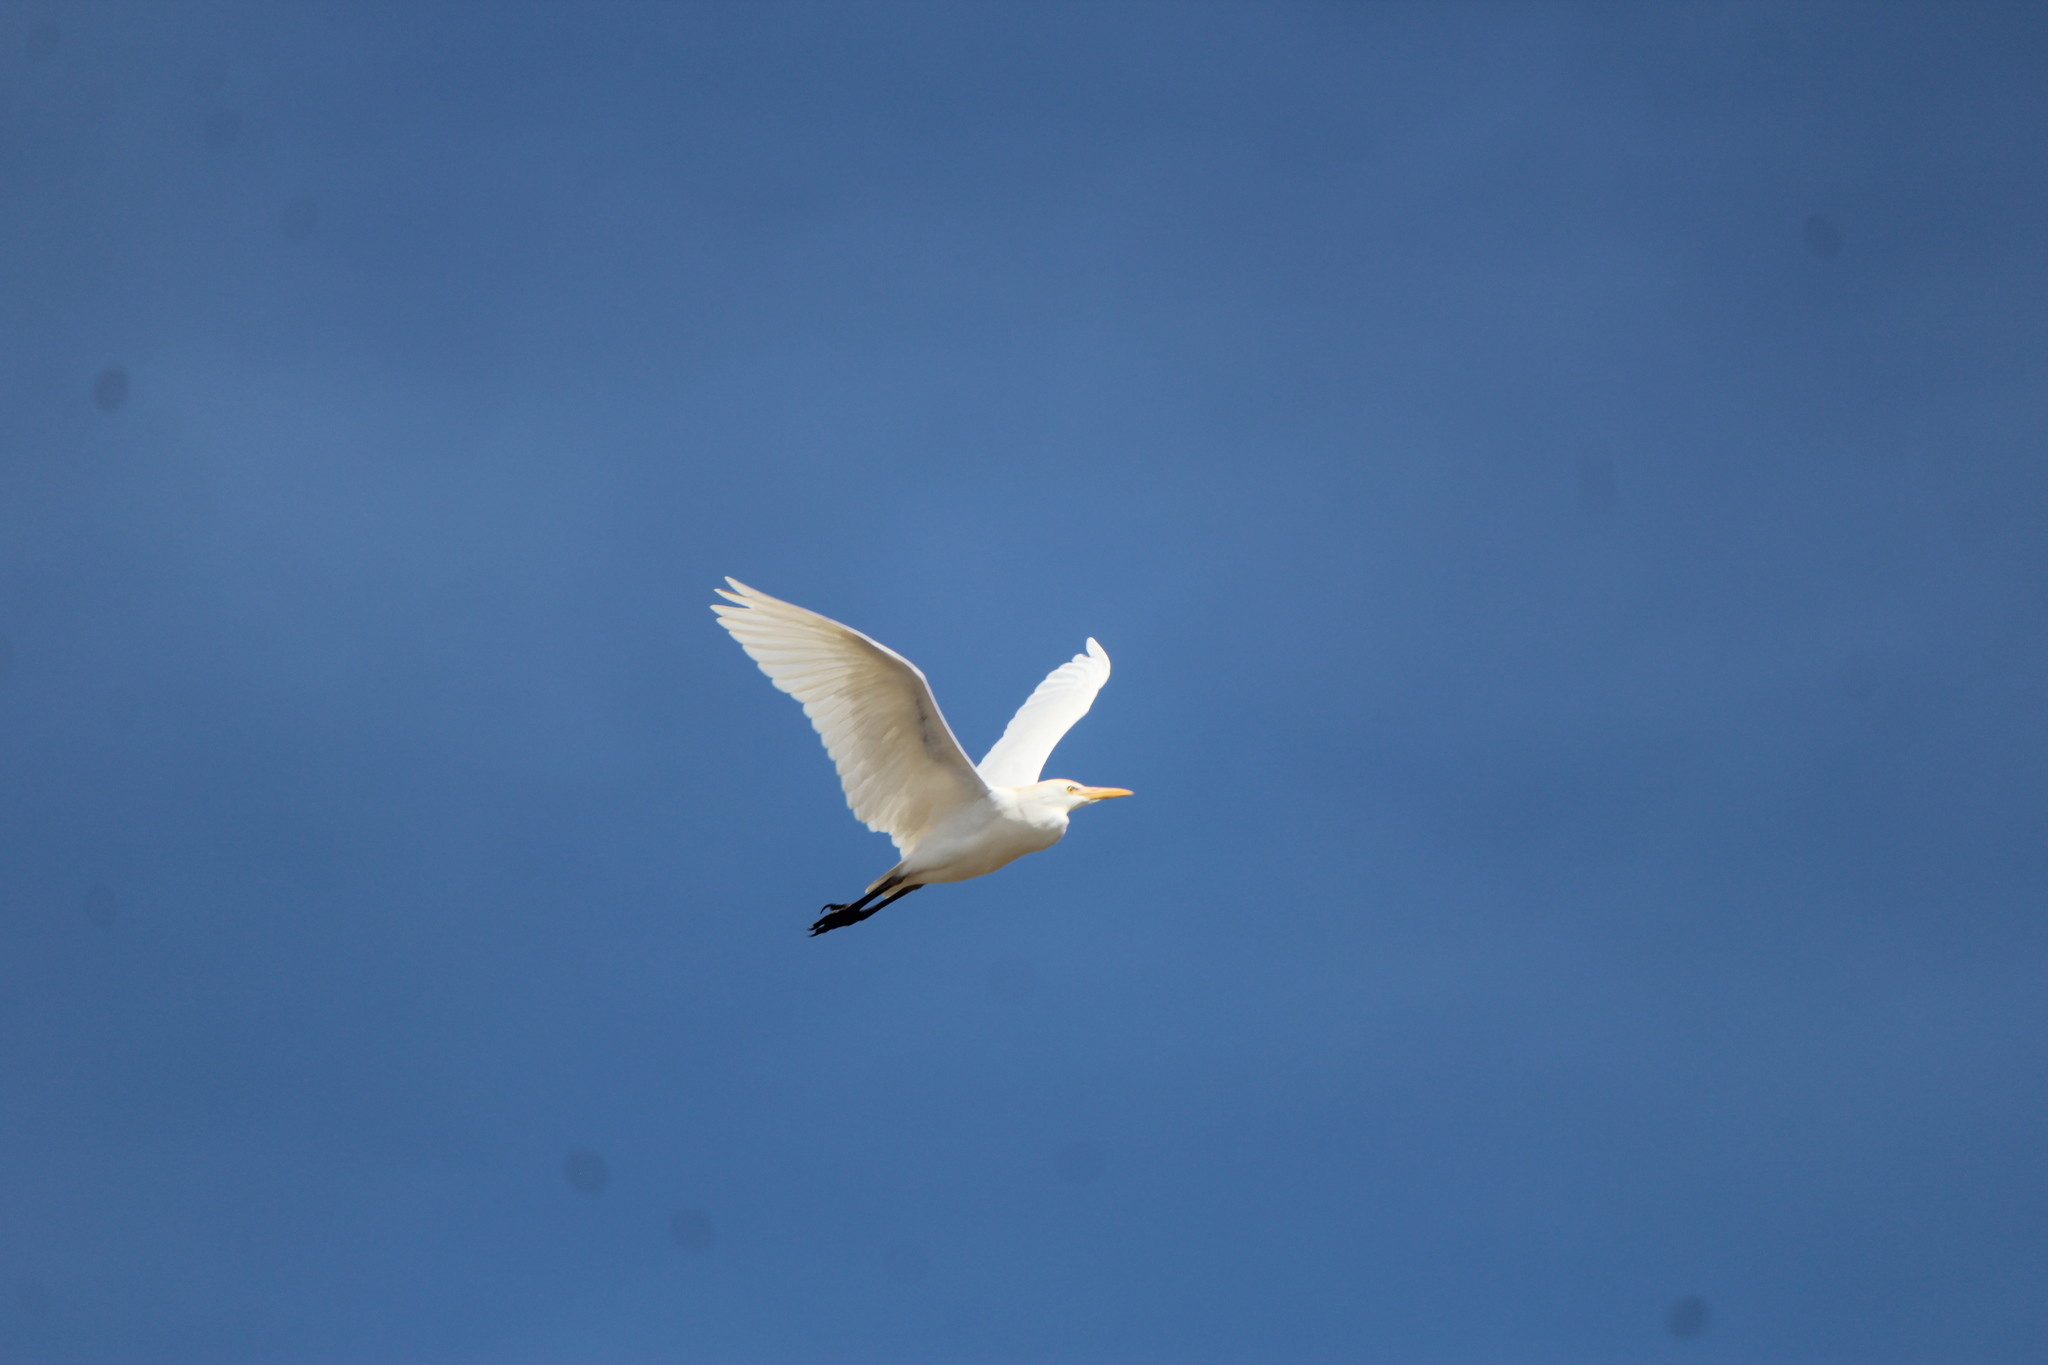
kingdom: Animalia
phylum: Chordata
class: Aves
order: Pelecaniformes
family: Ardeidae
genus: Bubulcus
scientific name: Bubulcus ibis
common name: Cattle egret
